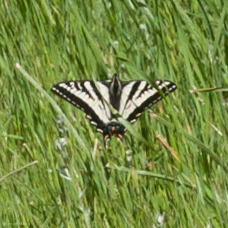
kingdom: Animalia
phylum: Arthropoda
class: Insecta
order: Lepidoptera
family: Papilionidae
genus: Papilio
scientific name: Papilio eurymedon
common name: Pale tiger swallowtail
